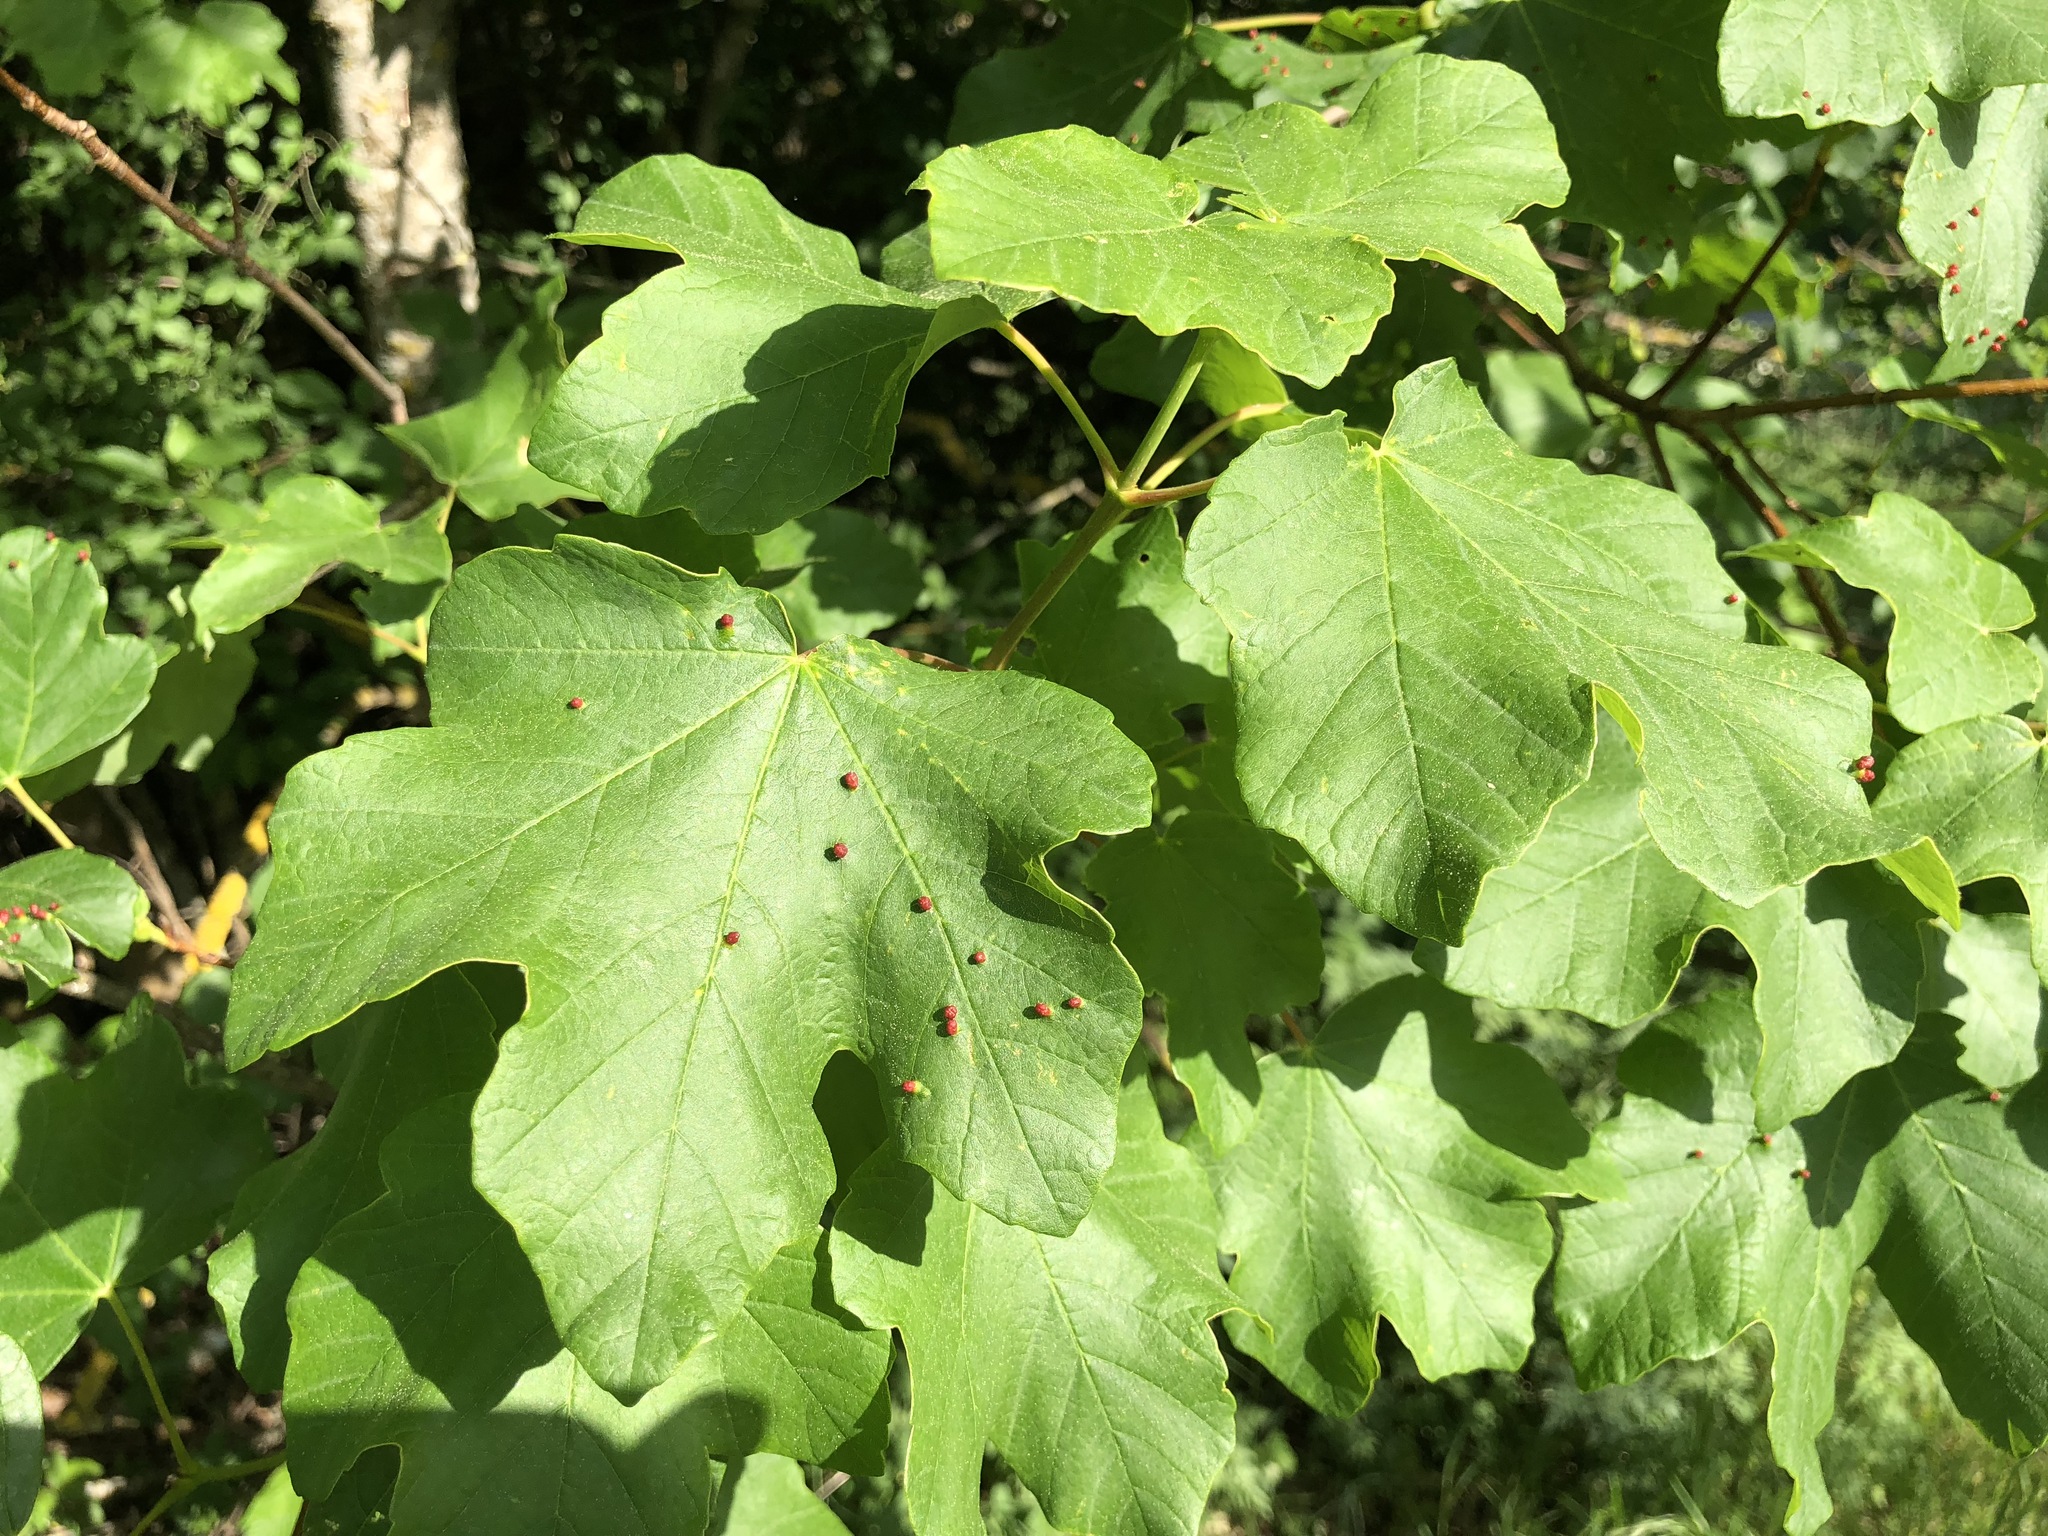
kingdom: Plantae
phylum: Tracheophyta
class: Magnoliopsida
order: Sapindales
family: Sapindaceae
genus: Acer
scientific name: Acer opalus
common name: Italian maple
